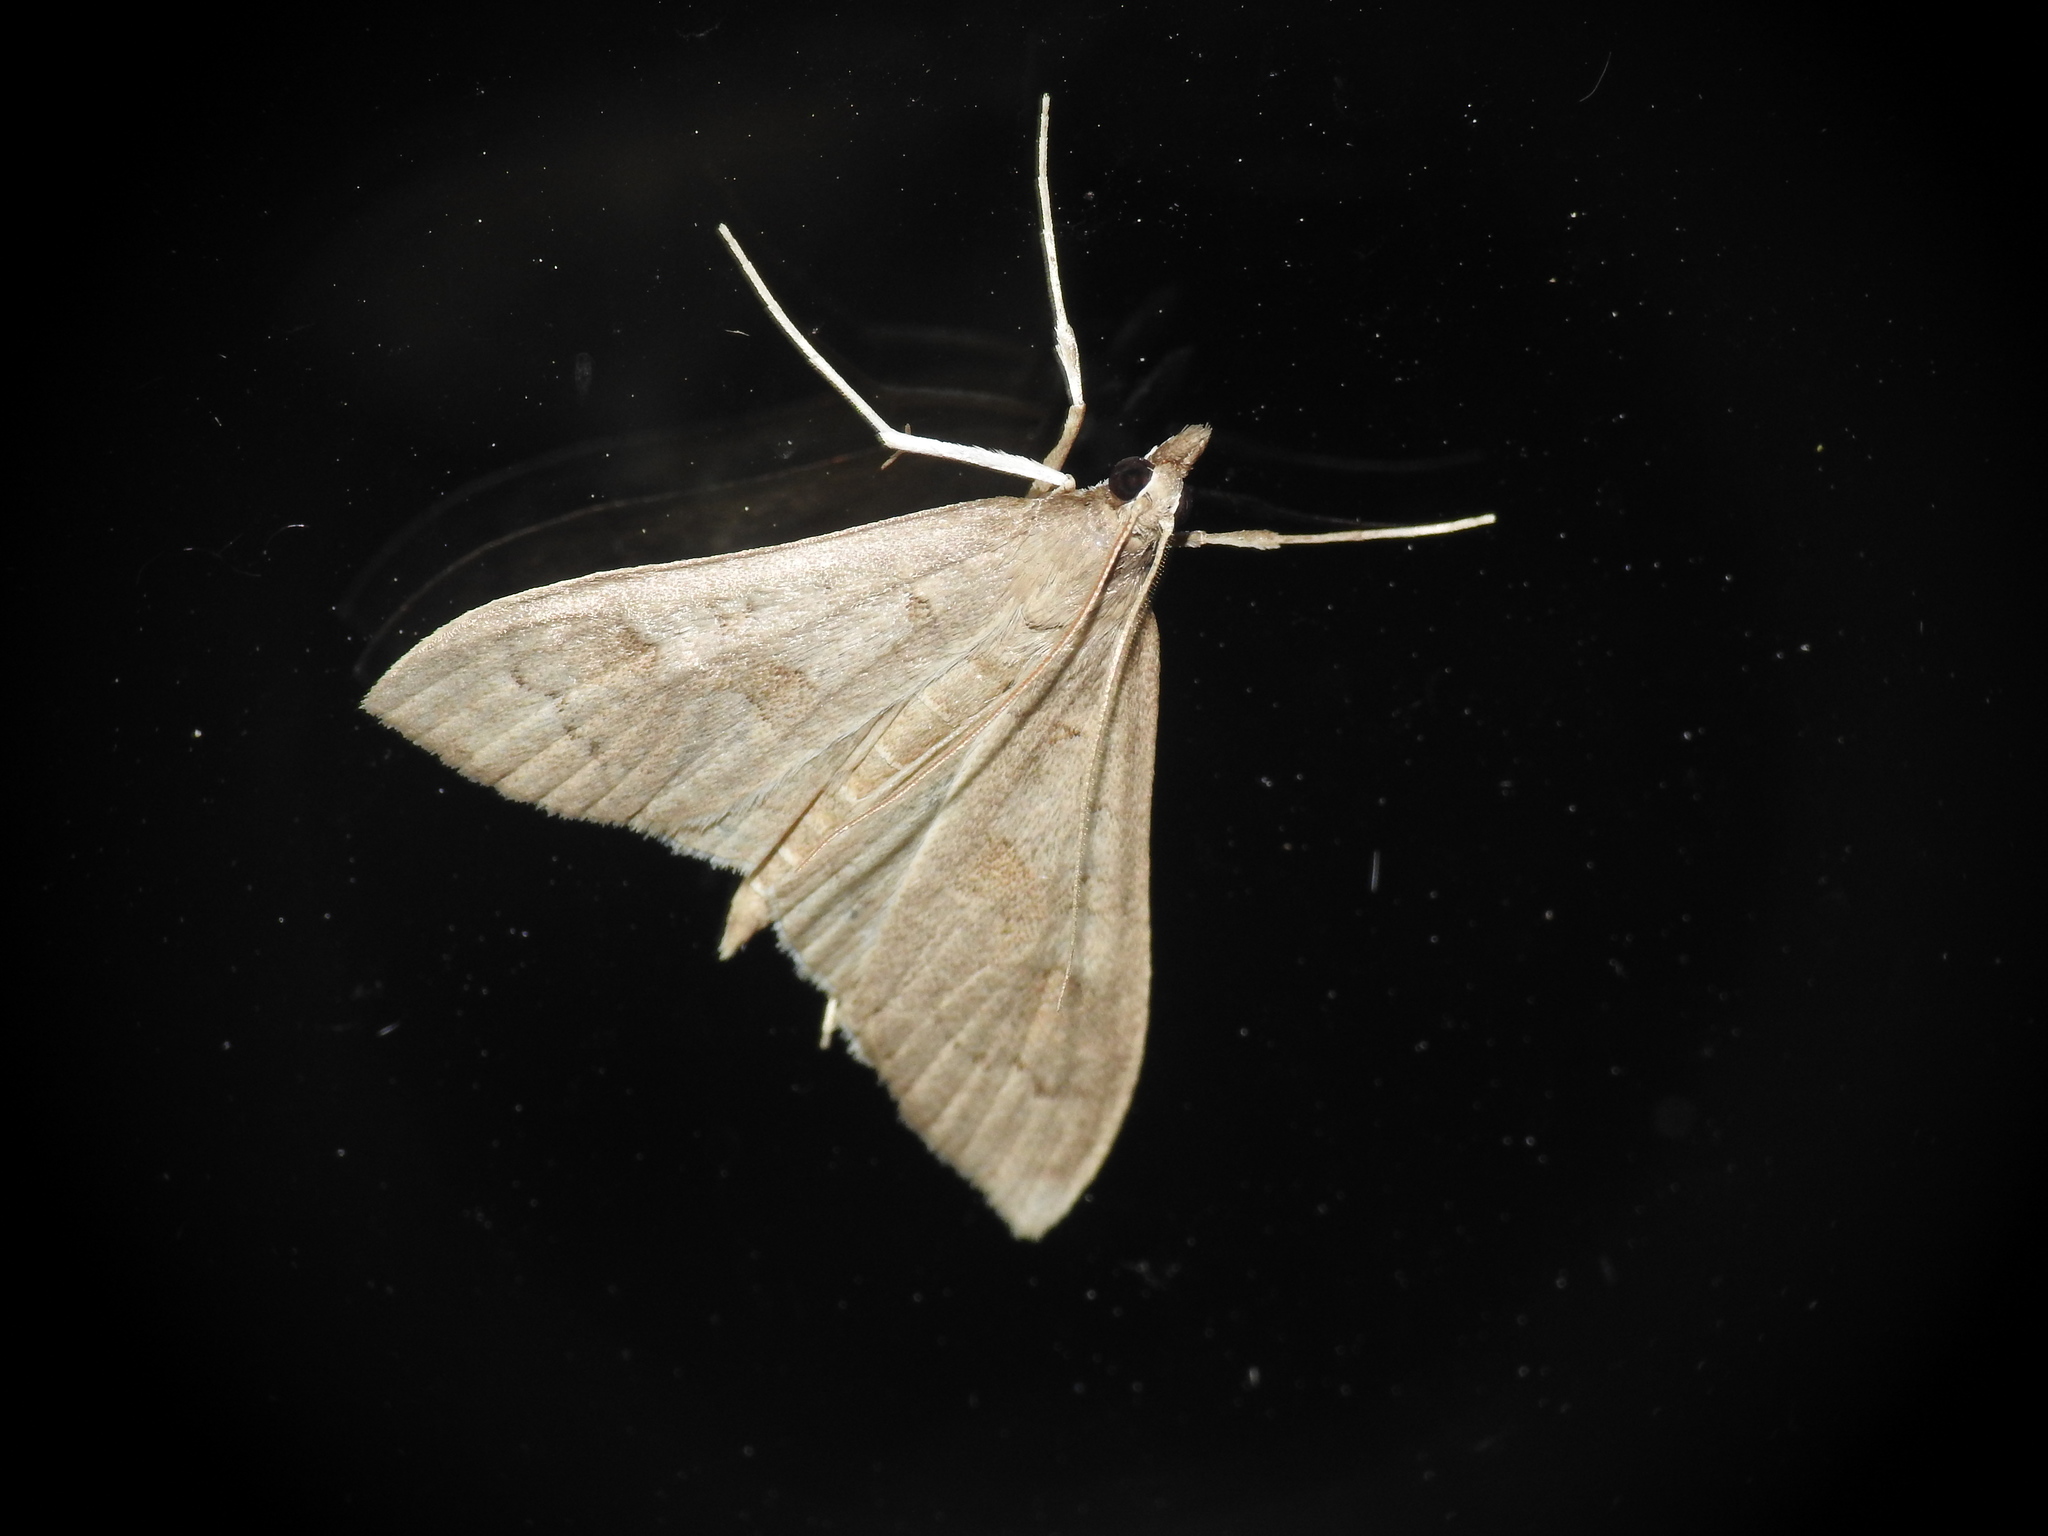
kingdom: Animalia
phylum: Arthropoda
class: Insecta
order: Lepidoptera
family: Crambidae
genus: Mecyna
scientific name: Mecyna asinalis
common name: Coastal pearl
